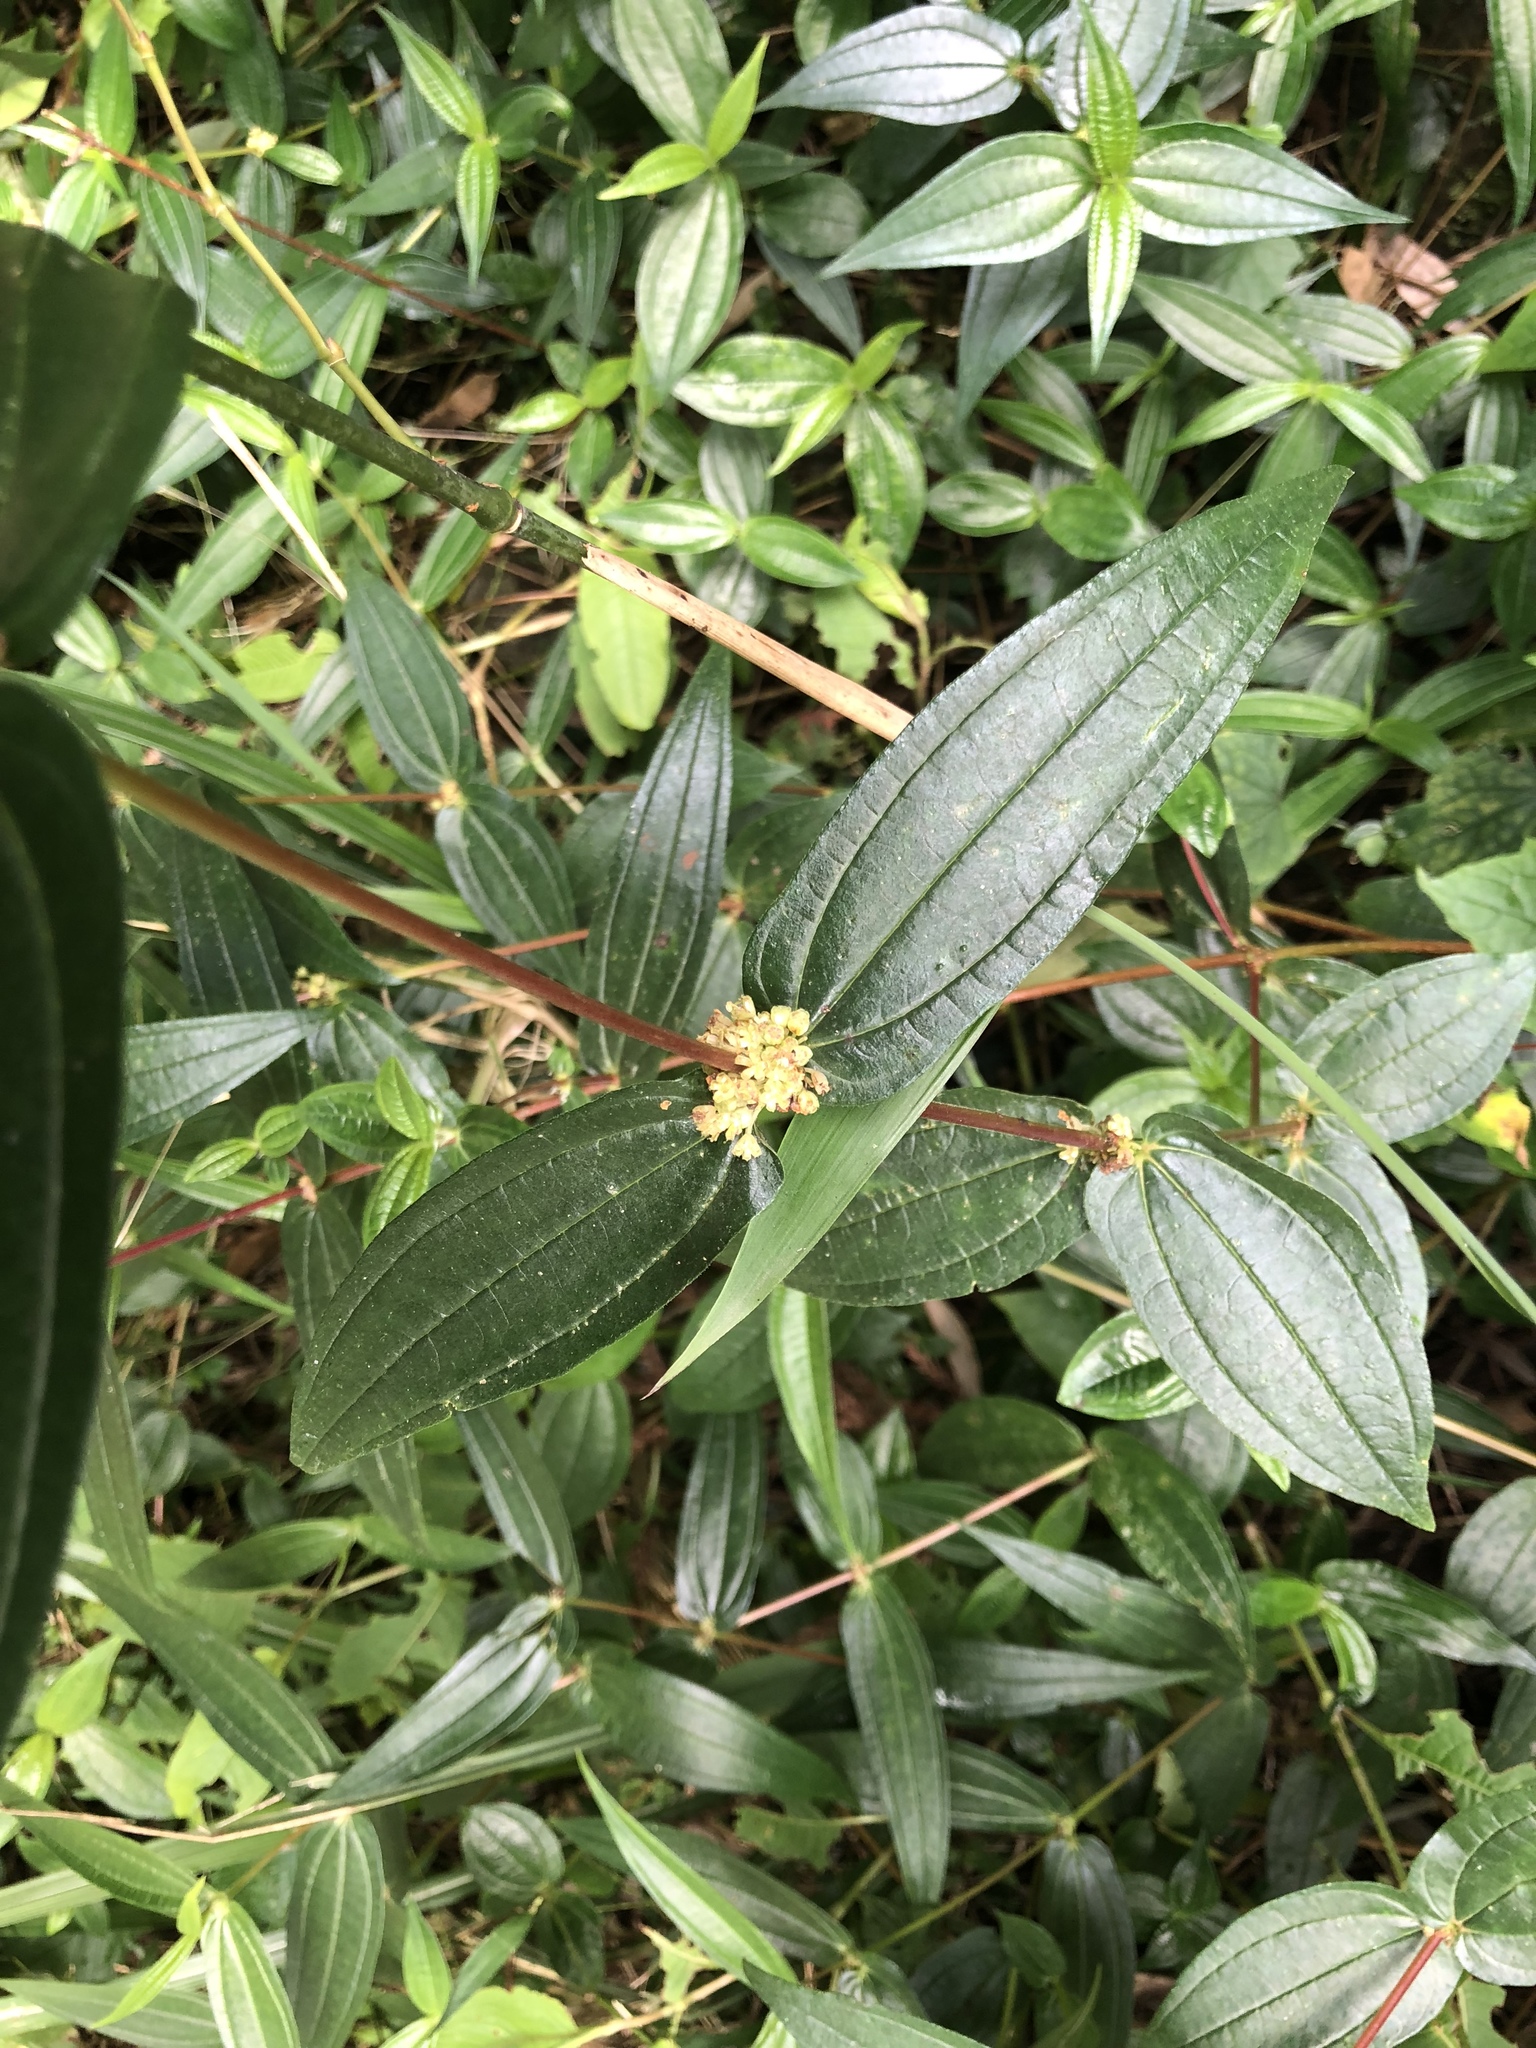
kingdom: Plantae
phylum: Tracheophyta
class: Magnoliopsida
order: Rosales
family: Urticaceae
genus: Gonostegia
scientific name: Gonostegia triandra
